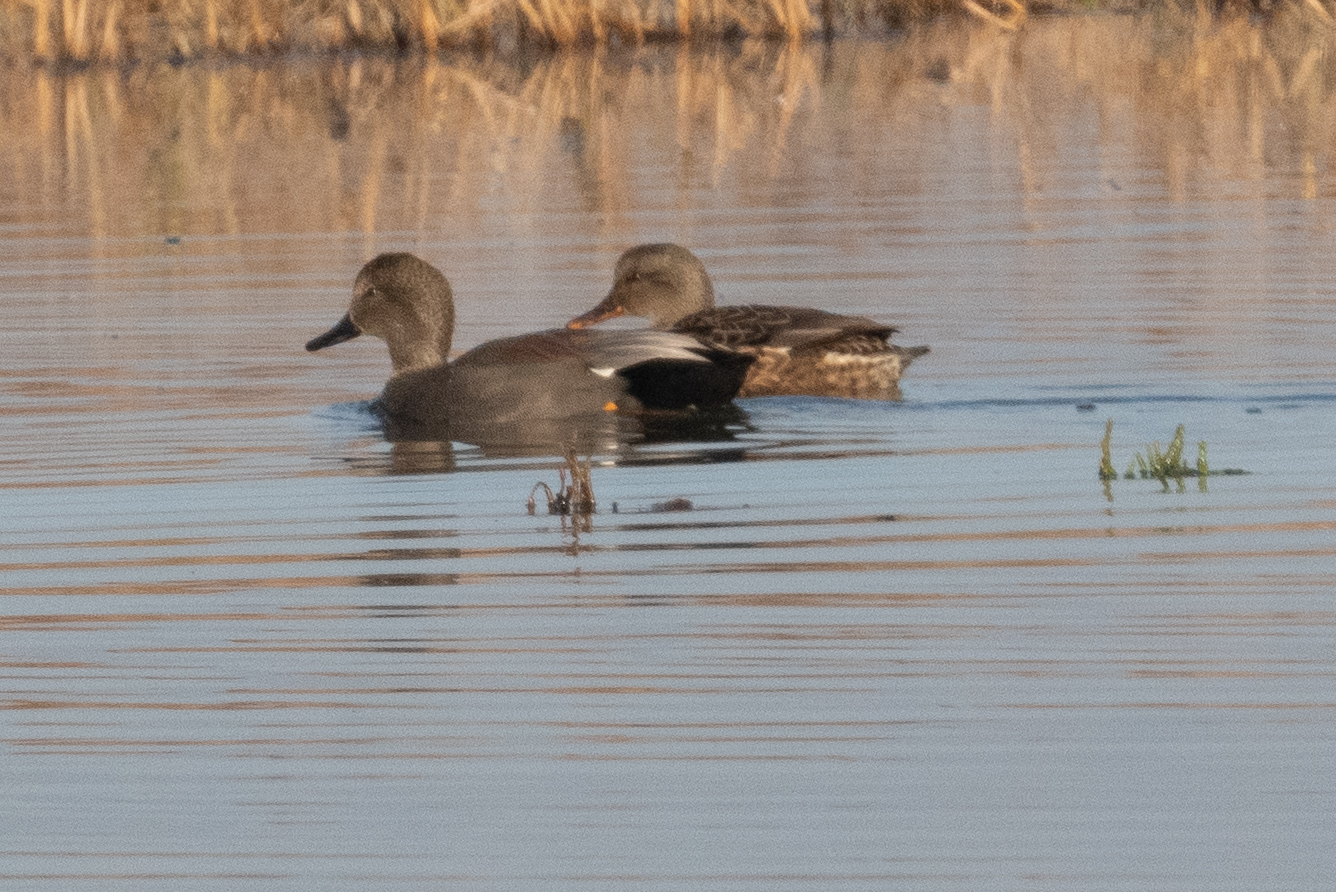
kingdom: Animalia
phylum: Chordata
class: Aves
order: Anseriformes
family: Anatidae
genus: Mareca
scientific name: Mareca strepera
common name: Gadwall
